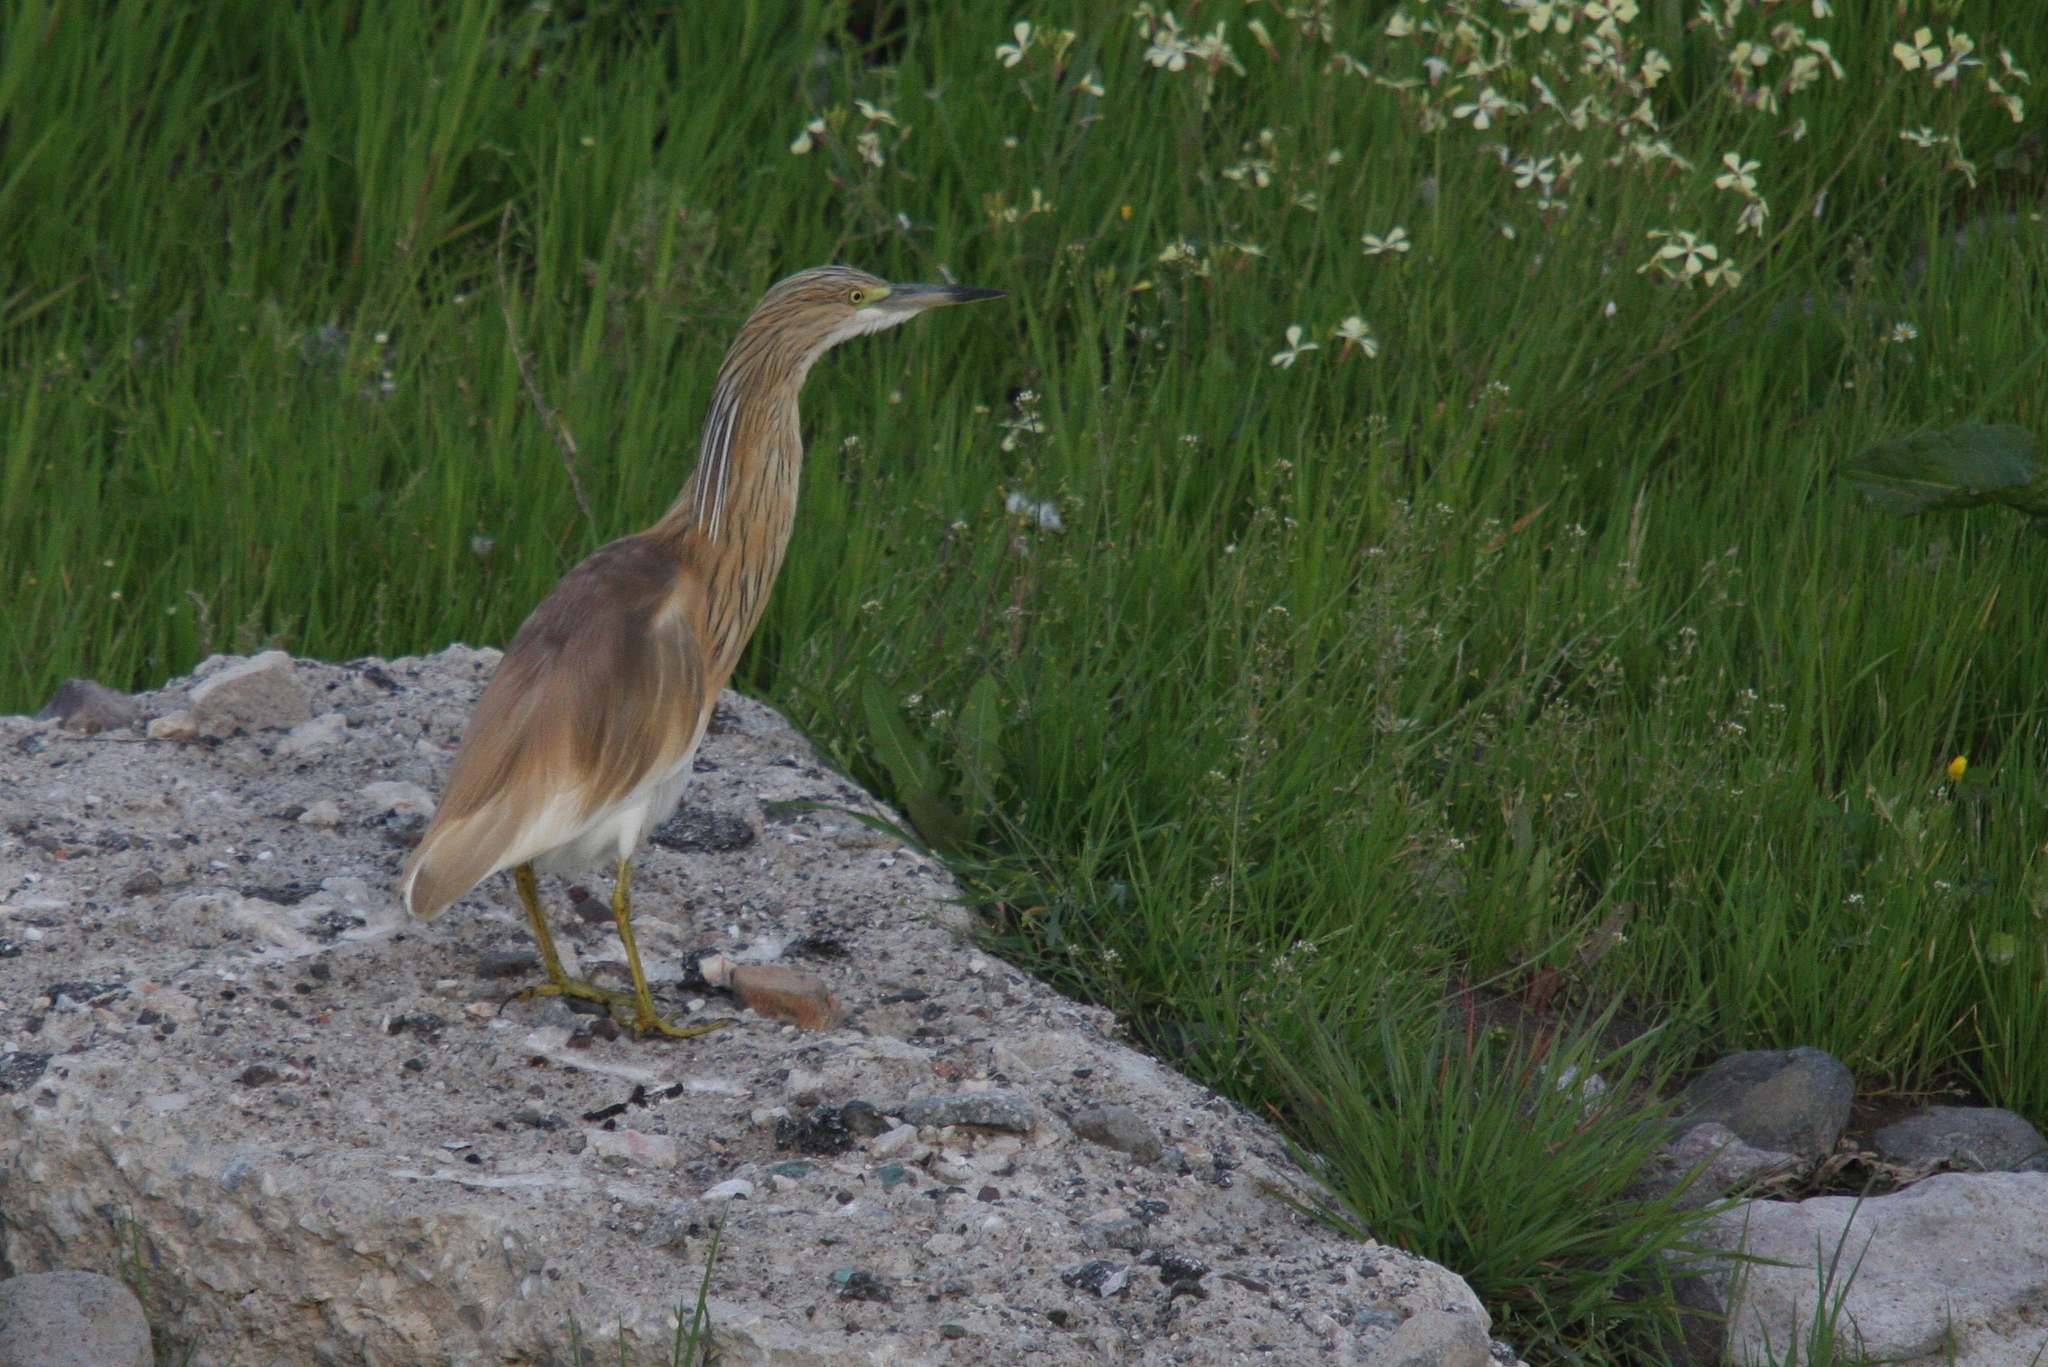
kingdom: Animalia
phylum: Chordata
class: Aves
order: Pelecaniformes
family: Ardeidae
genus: Ardeola
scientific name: Ardeola ralloides
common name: Squacco heron
